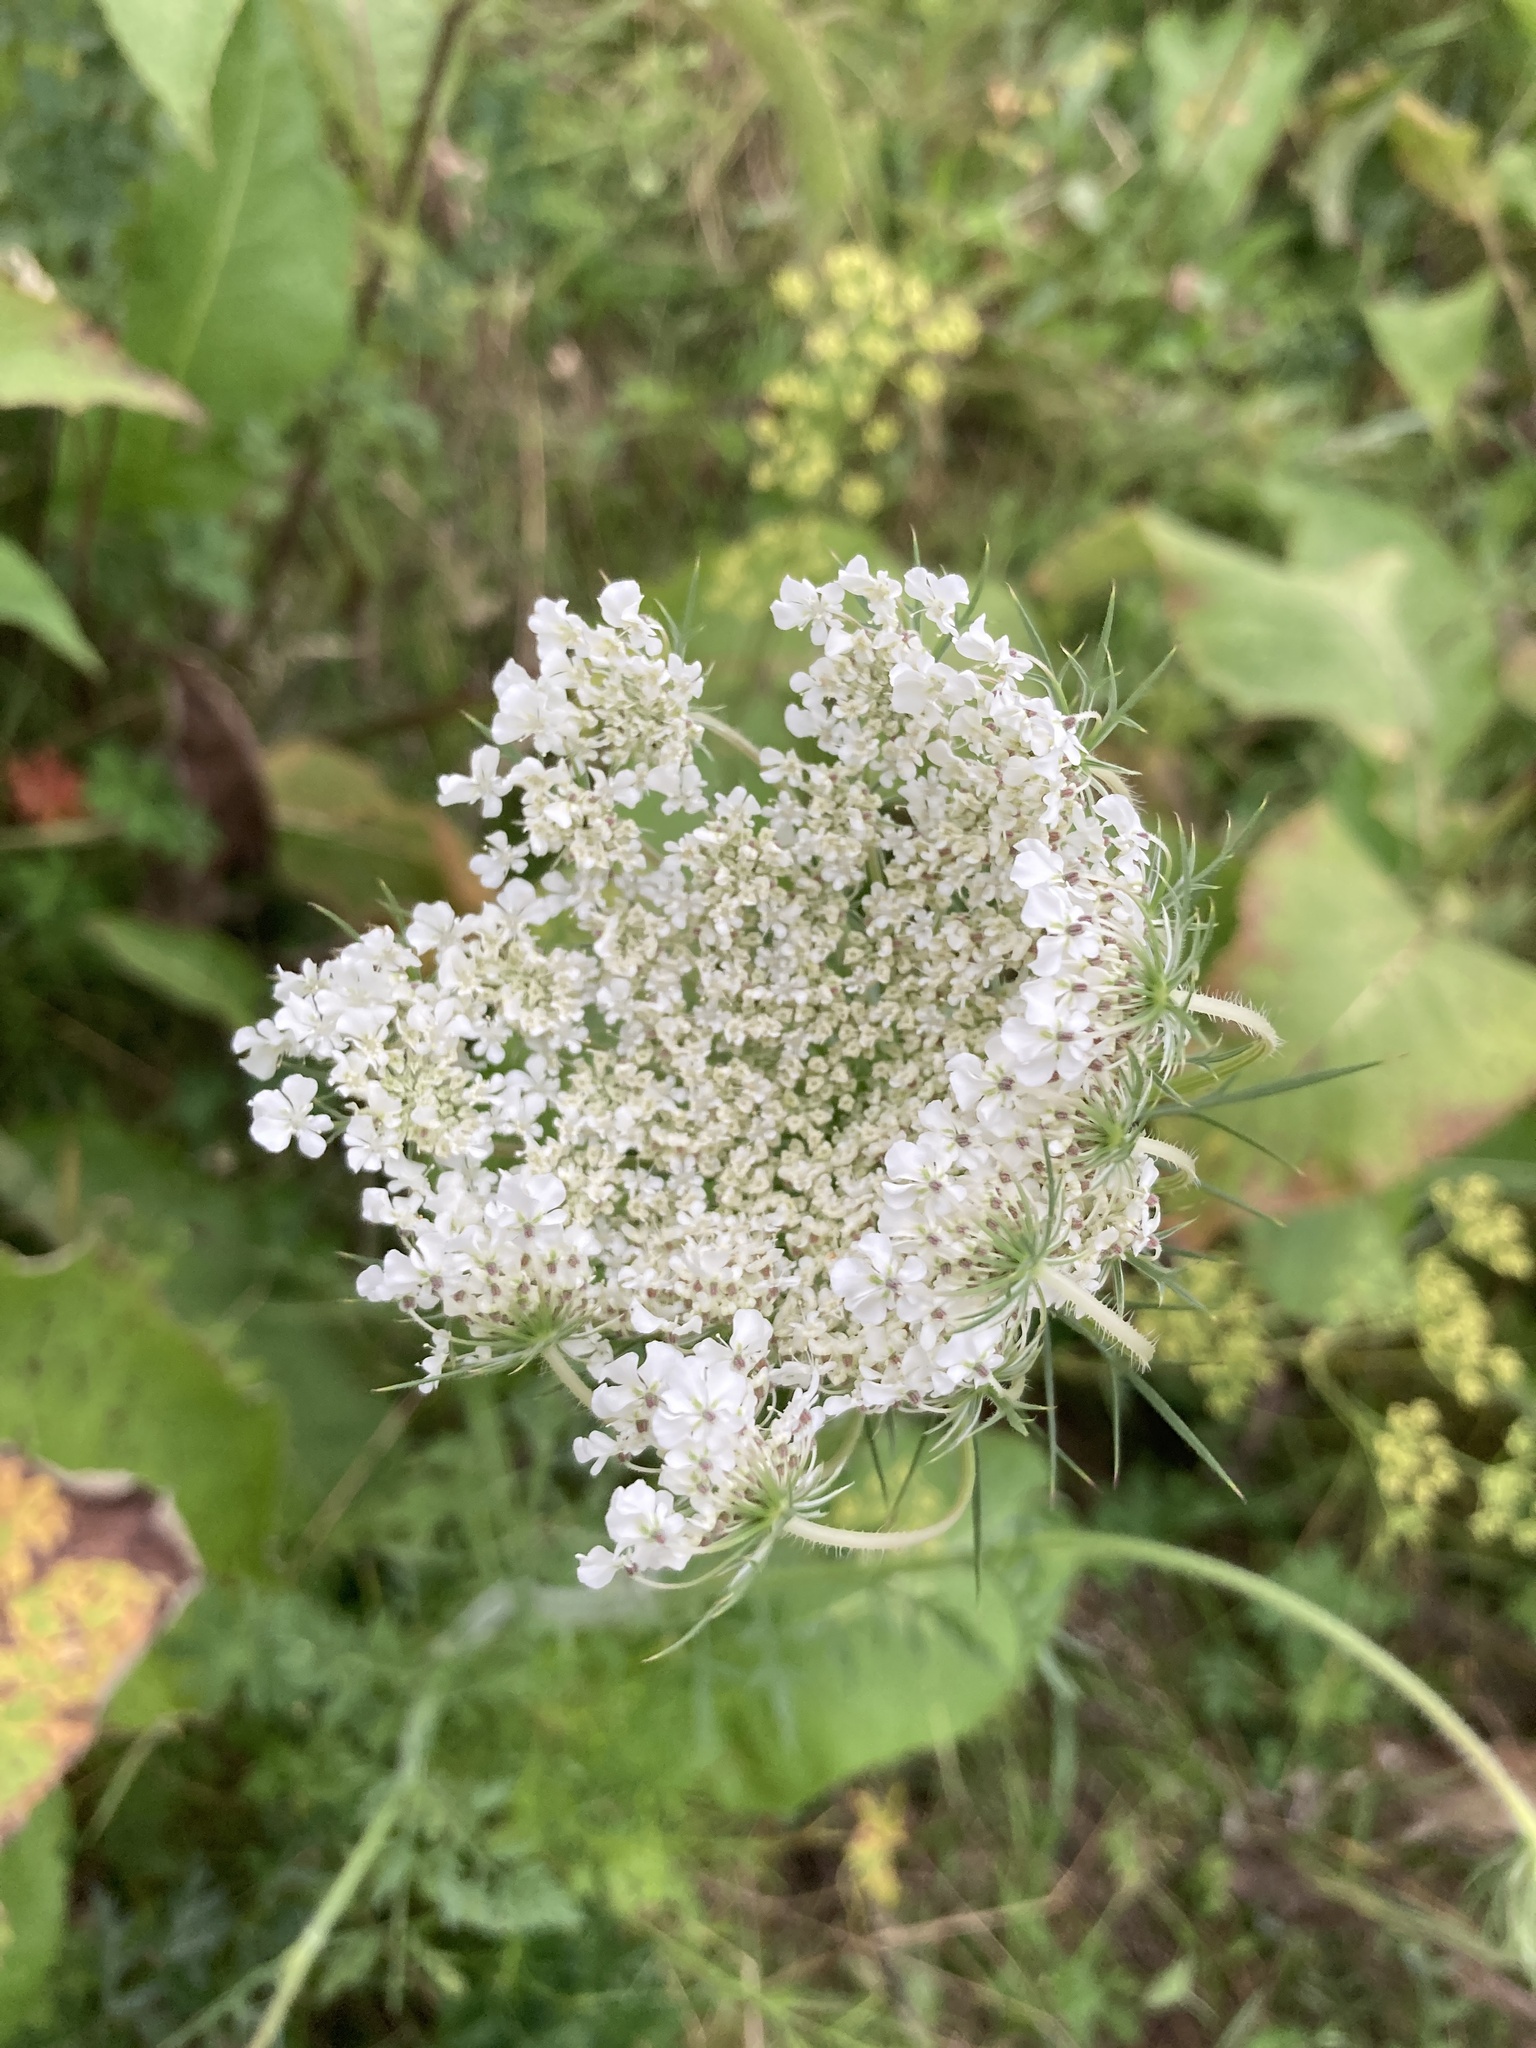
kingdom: Plantae
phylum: Tracheophyta
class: Magnoliopsida
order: Apiales
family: Apiaceae
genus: Daucus
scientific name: Daucus carota
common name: Wild carrot
